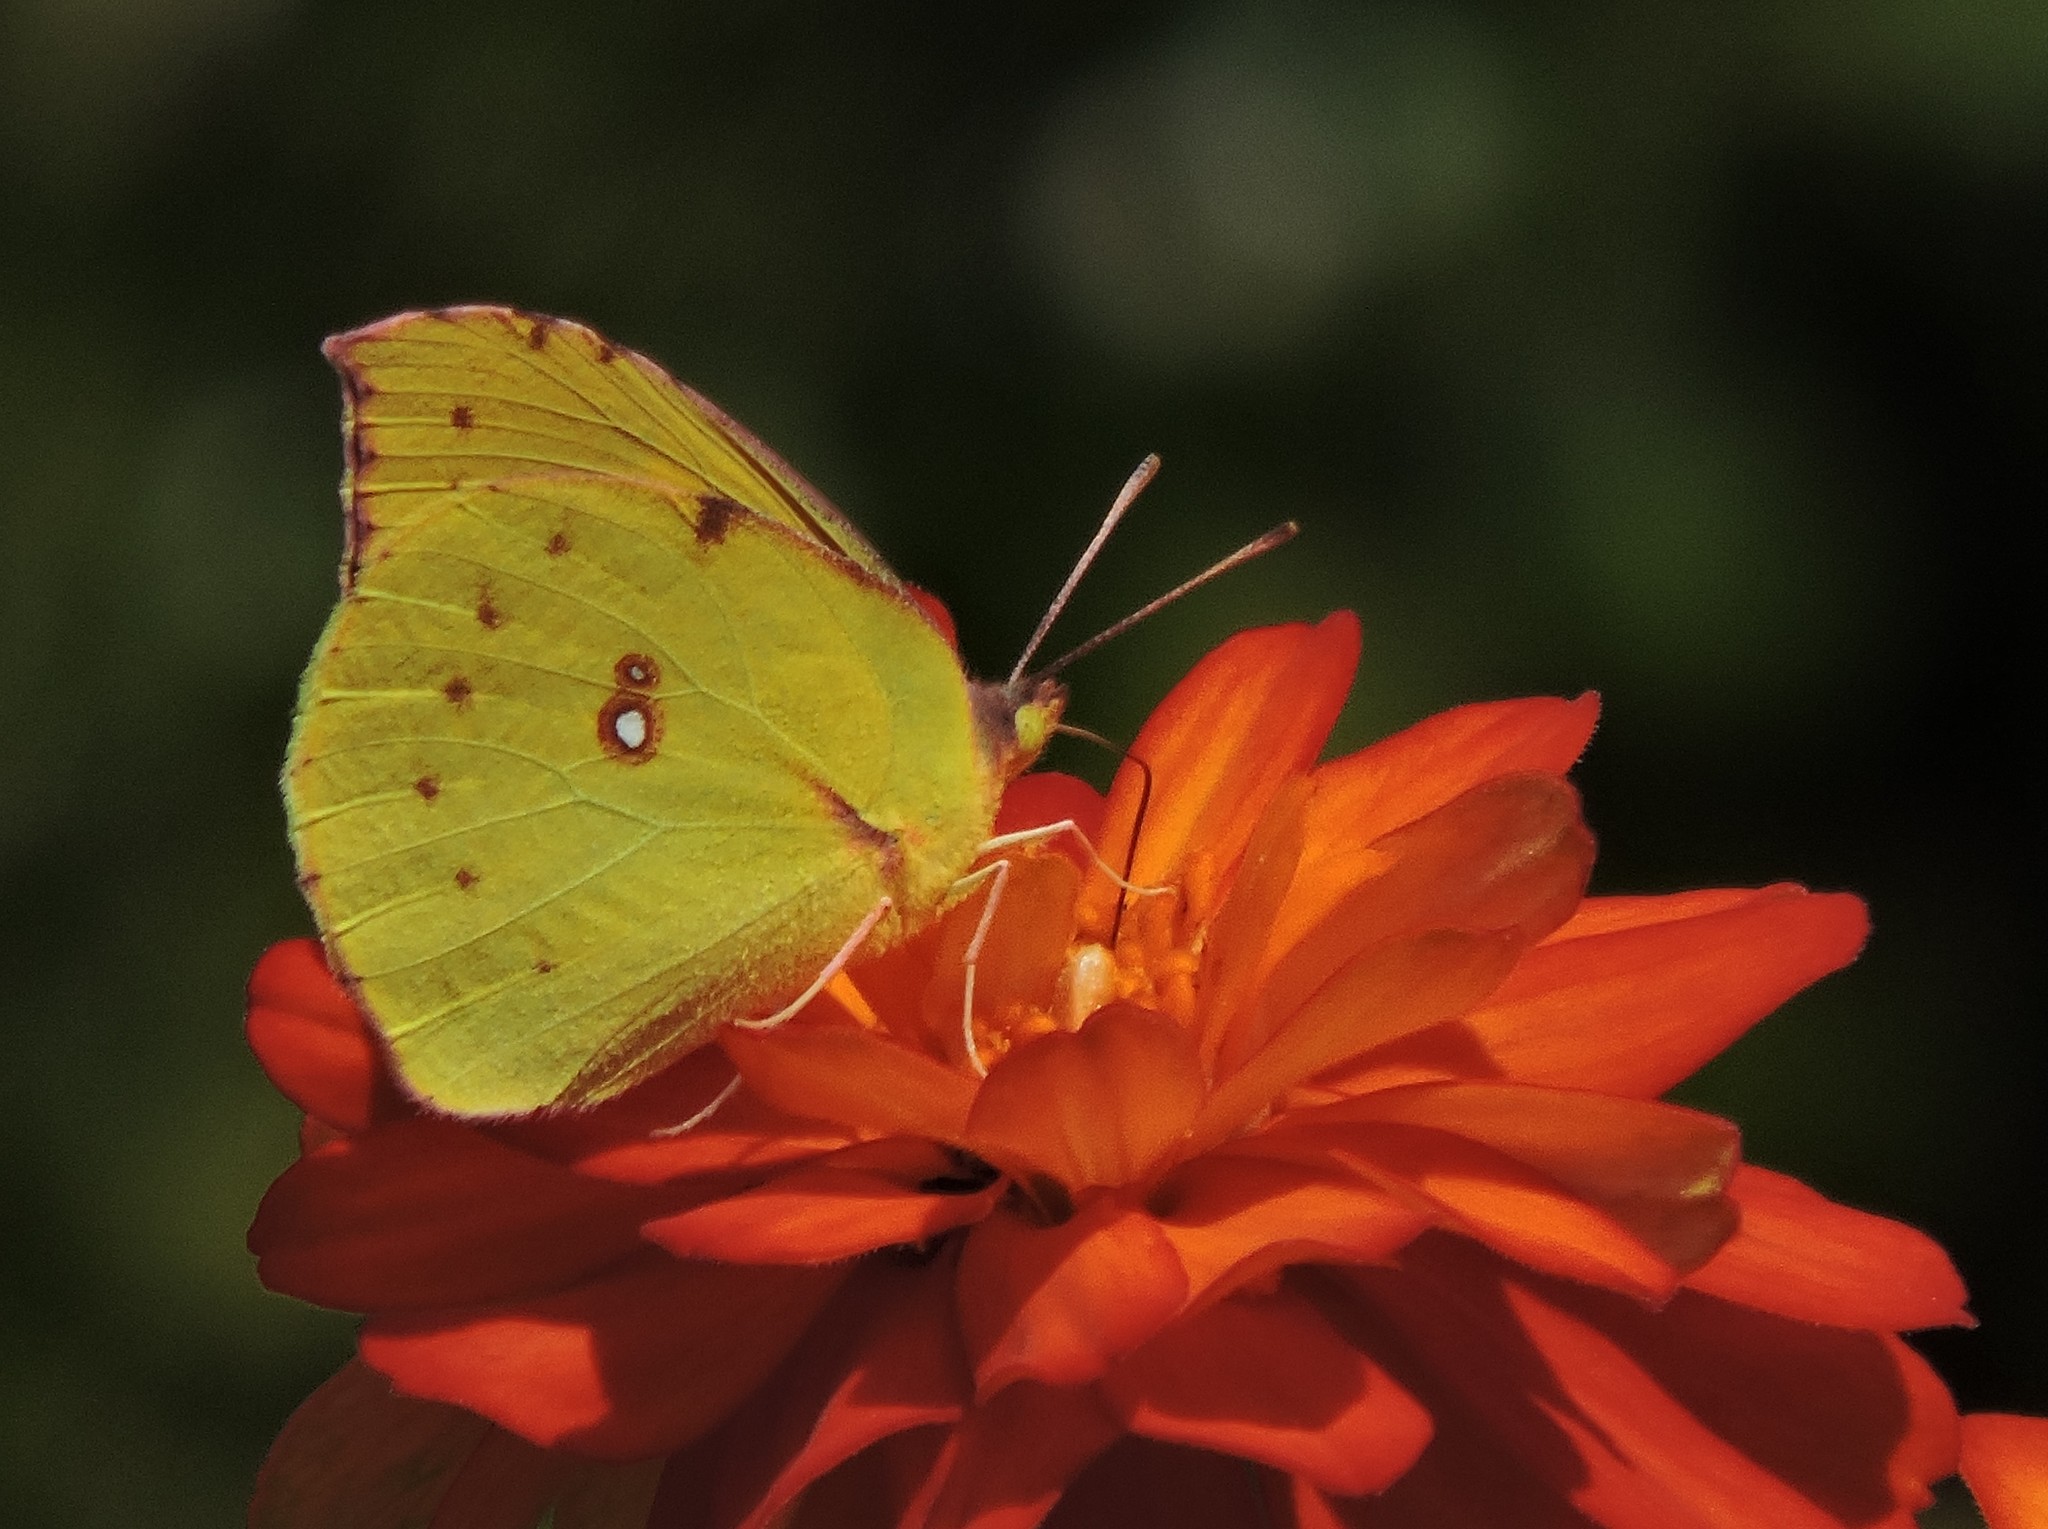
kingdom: Animalia
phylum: Arthropoda
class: Insecta
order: Lepidoptera
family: Pieridae
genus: Zerene
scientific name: Zerene eurydice
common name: California dogface
